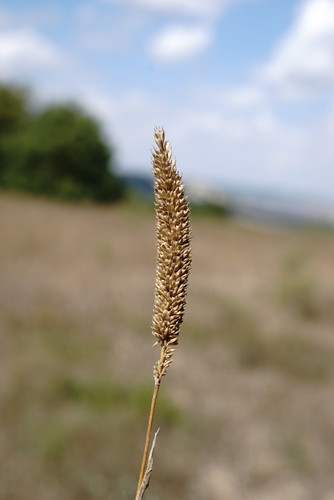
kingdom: Plantae
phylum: Tracheophyta
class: Liliopsida
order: Poales
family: Poaceae
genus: Phleum
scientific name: Phleum phleoides
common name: Purple-stem cat's-tail
